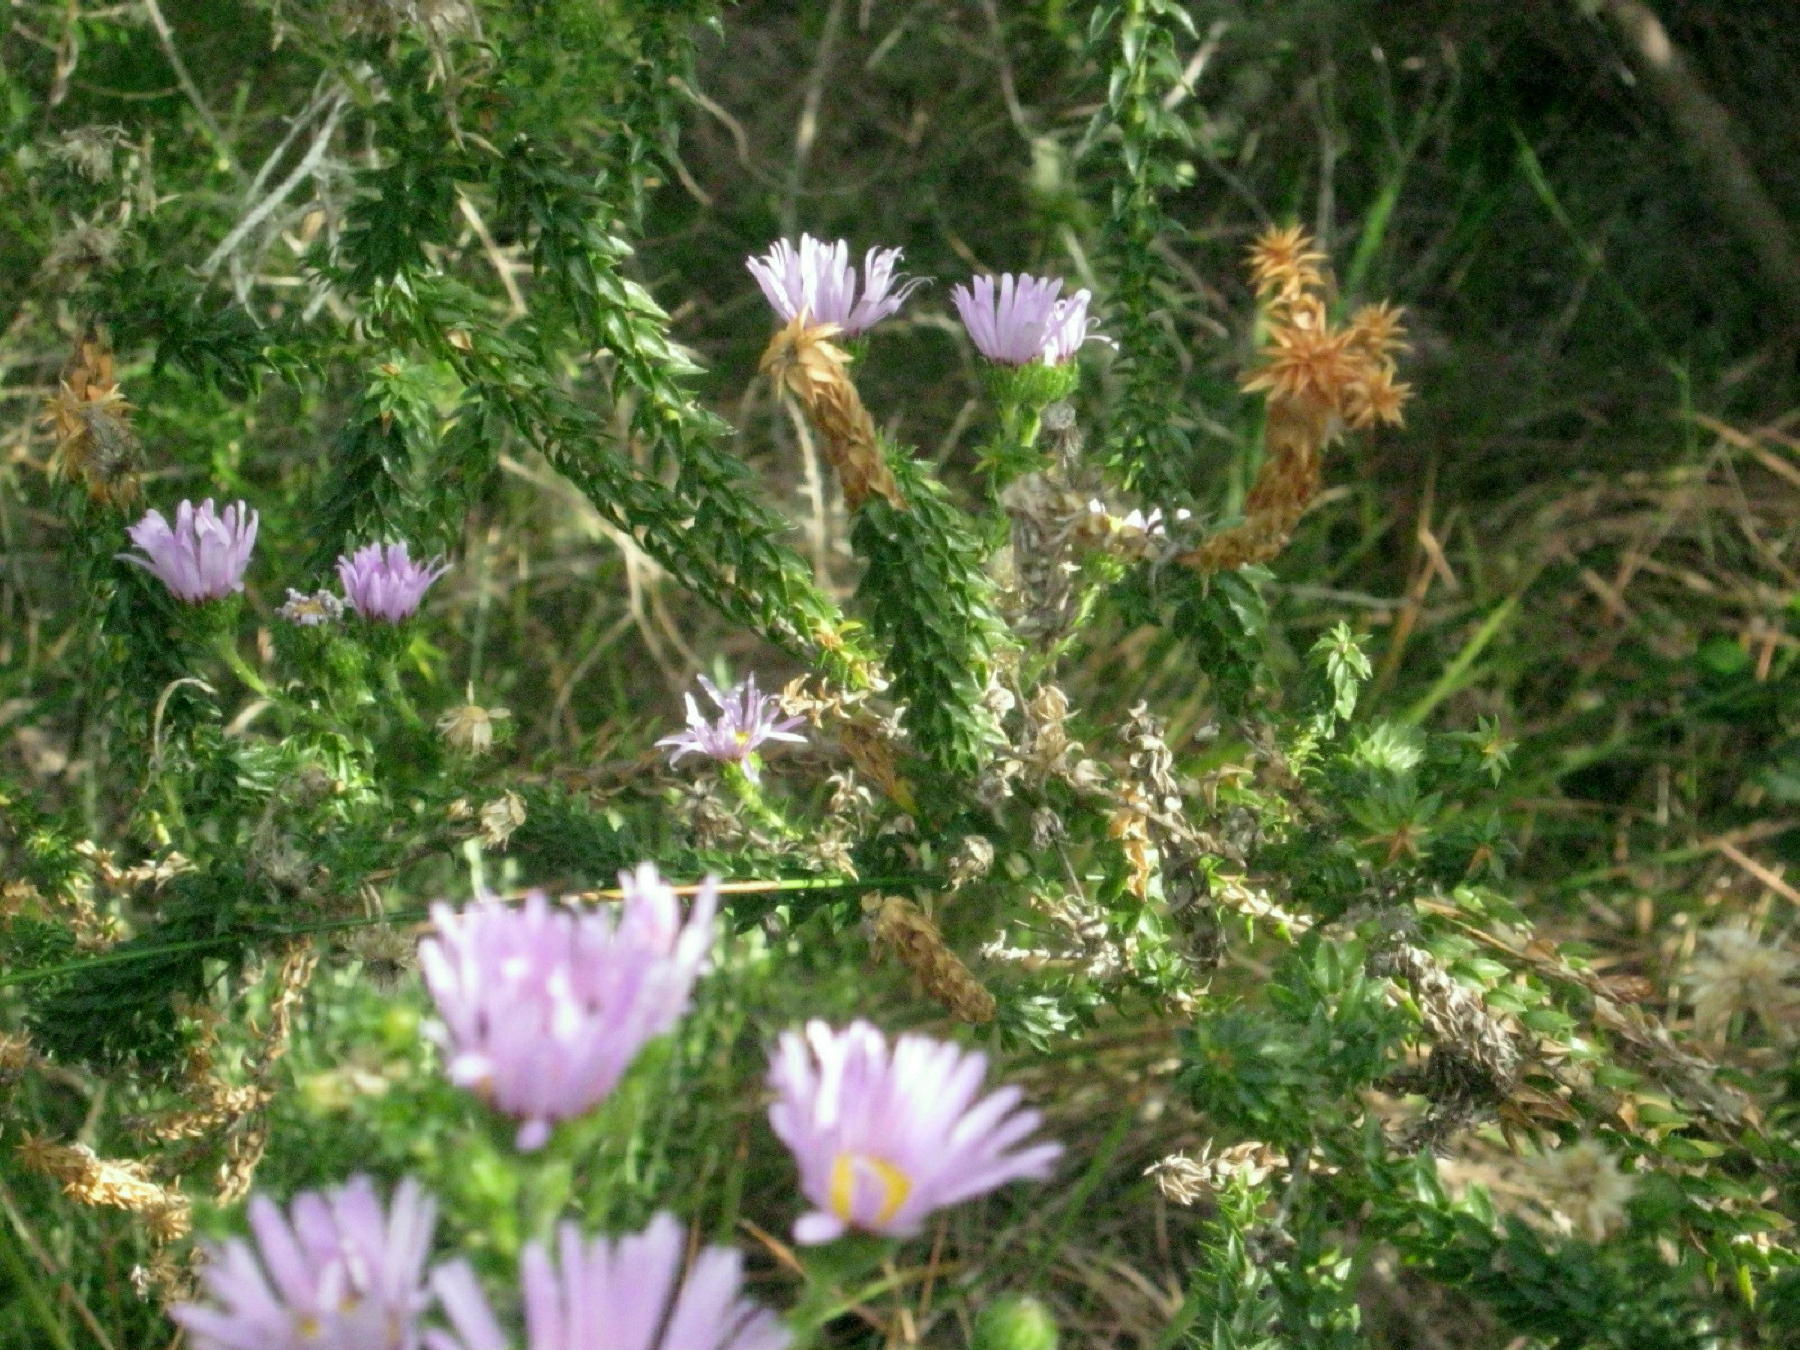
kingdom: Plantae
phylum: Tracheophyta
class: Magnoliopsida
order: Asterales
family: Asteraceae
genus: Felicia
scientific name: Felicia echinata
